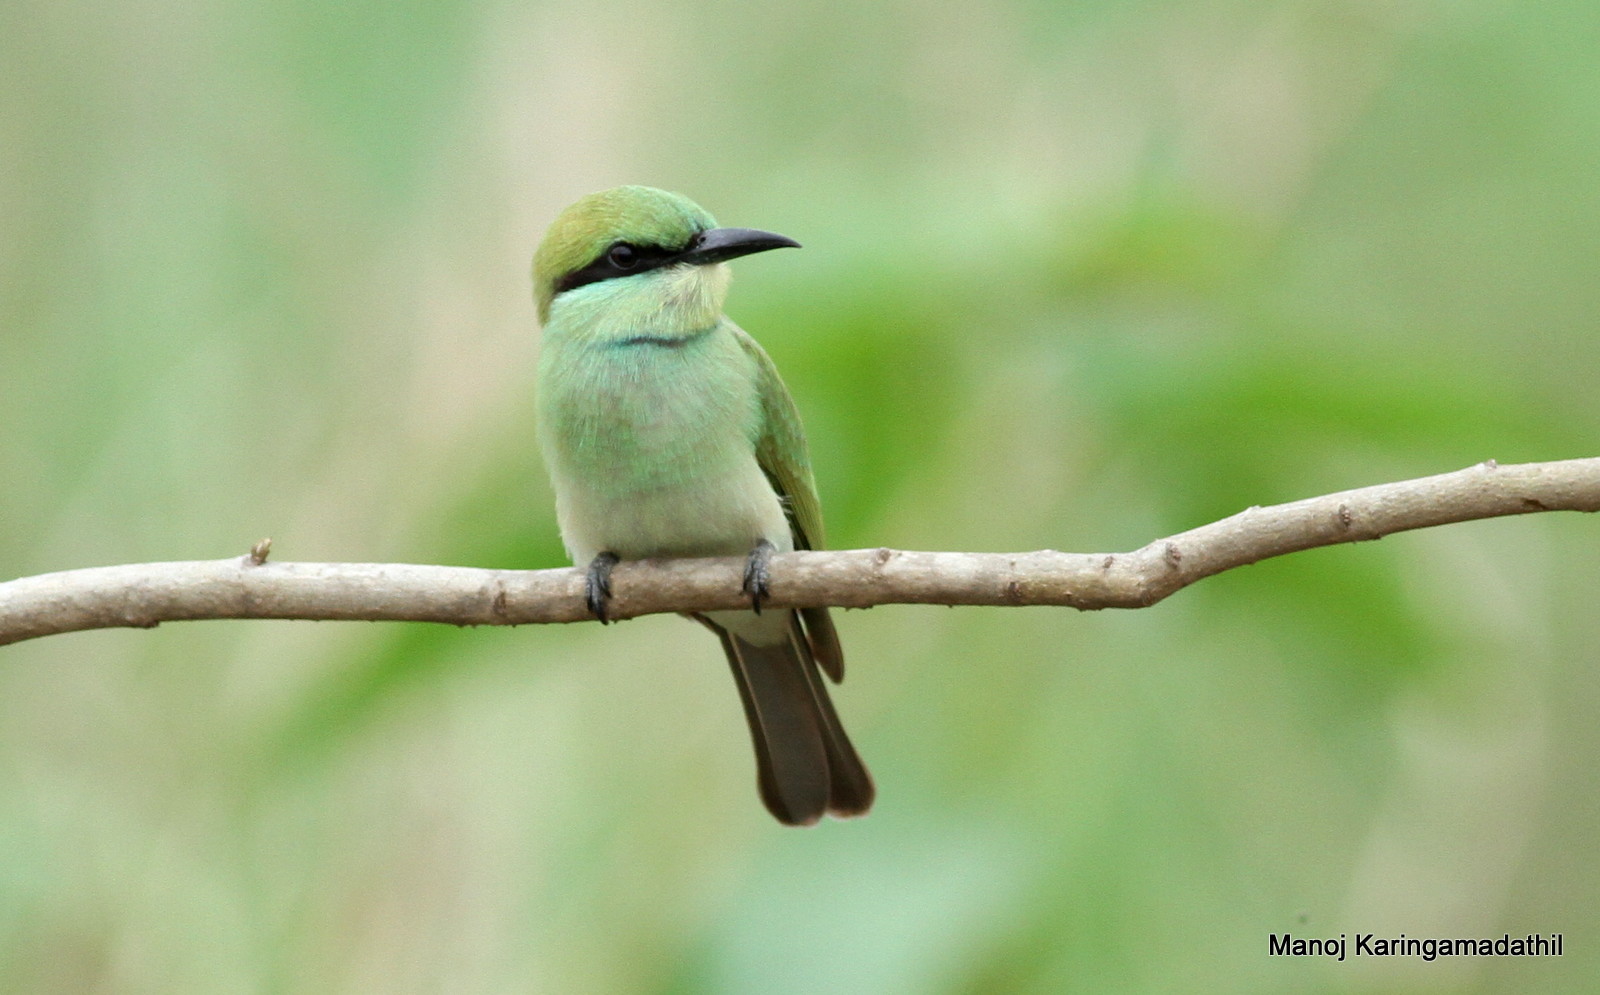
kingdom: Animalia
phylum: Chordata
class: Aves
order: Coraciiformes
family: Meropidae
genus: Merops
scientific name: Merops orientalis
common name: Green bee-eater
